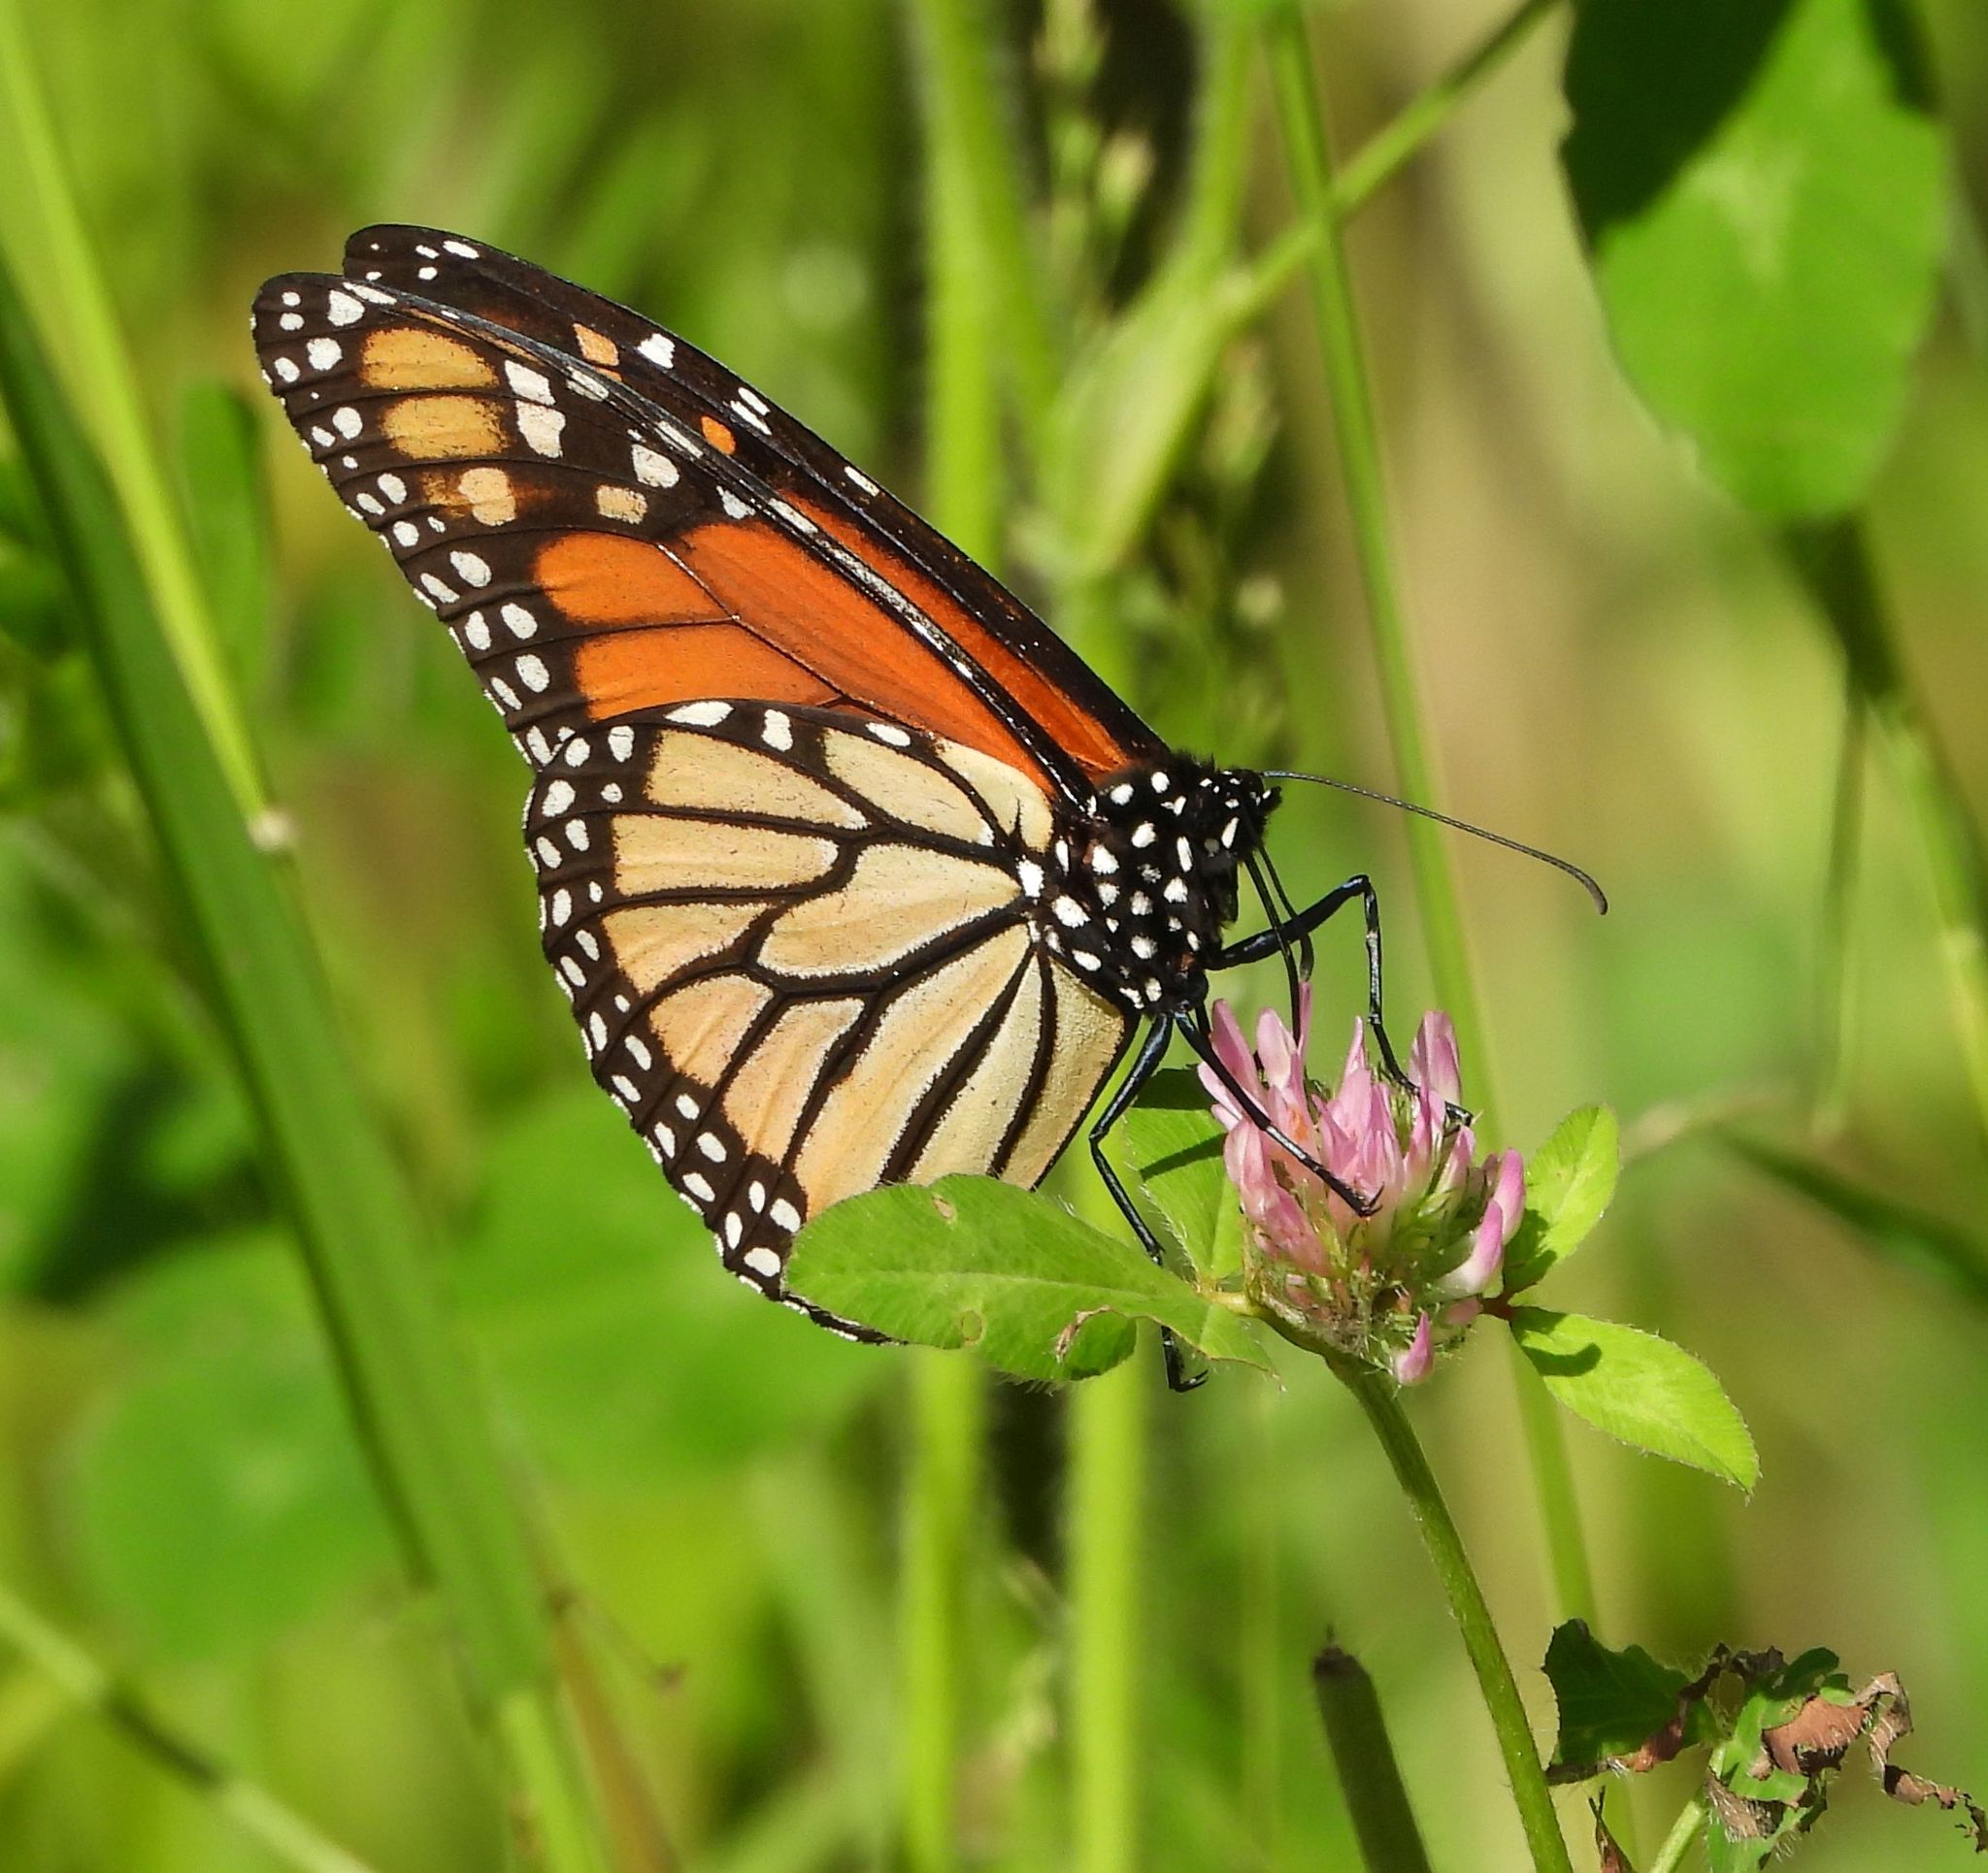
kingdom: Animalia
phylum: Arthropoda
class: Insecta
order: Lepidoptera
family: Nymphalidae
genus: Danaus
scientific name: Danaus plexippus
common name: Monarch
